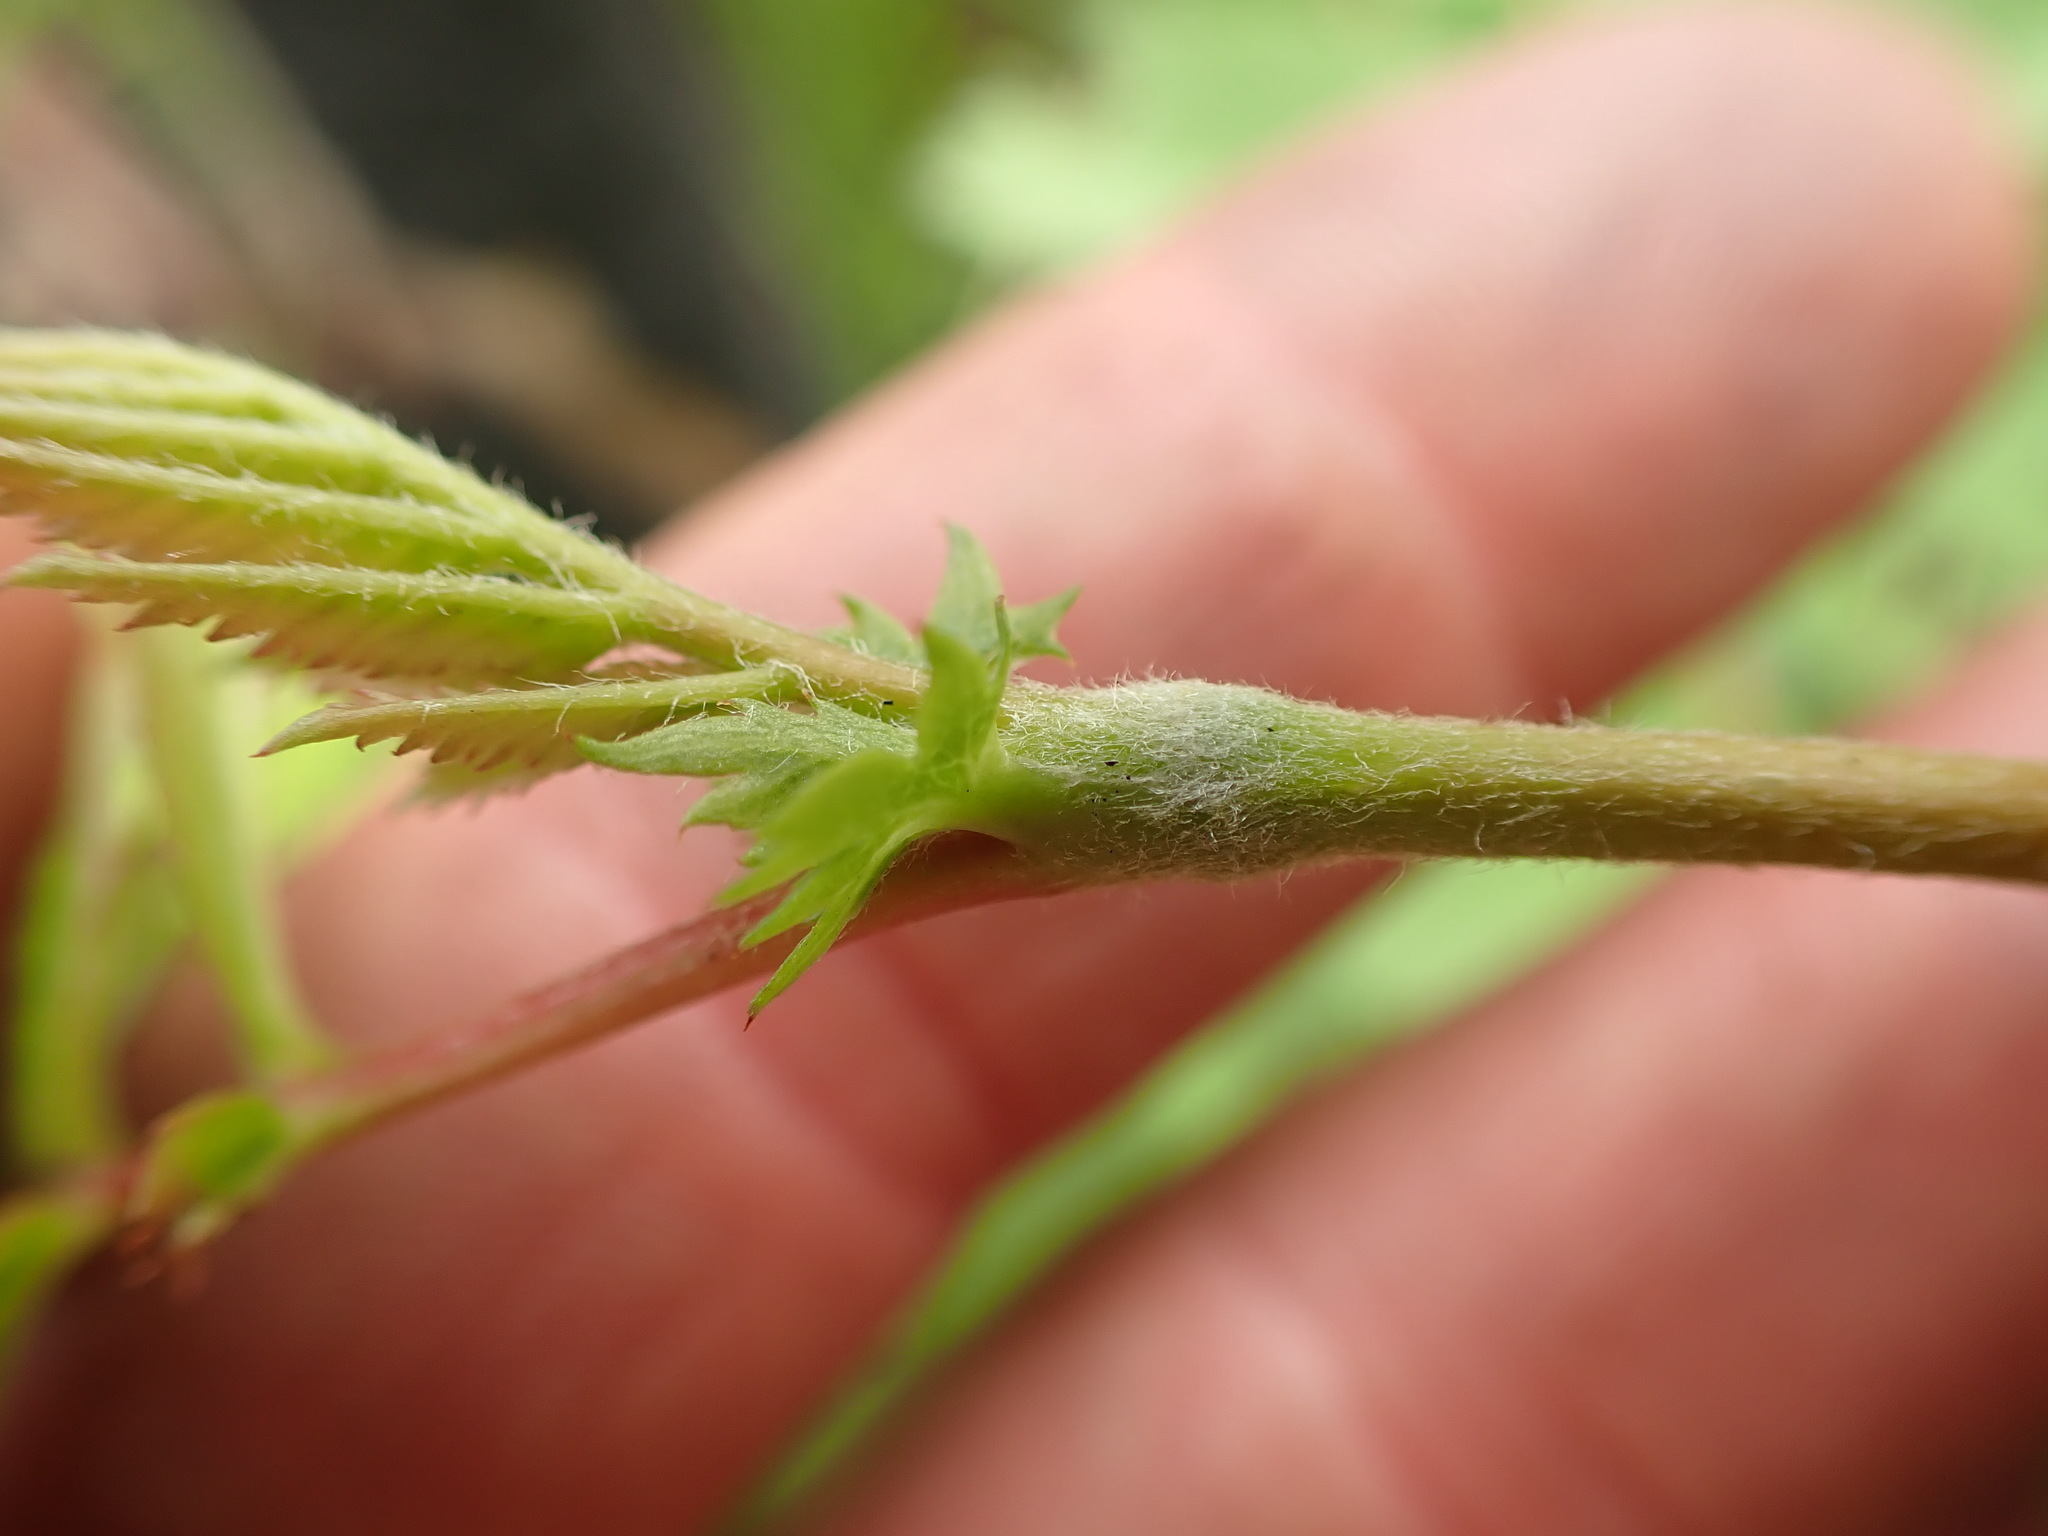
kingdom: Plantae
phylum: Tracheophyta
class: Magnoliopsida
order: Rosales
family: Rosaceae
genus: Sorbus
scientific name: Sorbus scopulina
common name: Greene's mountain-ash
